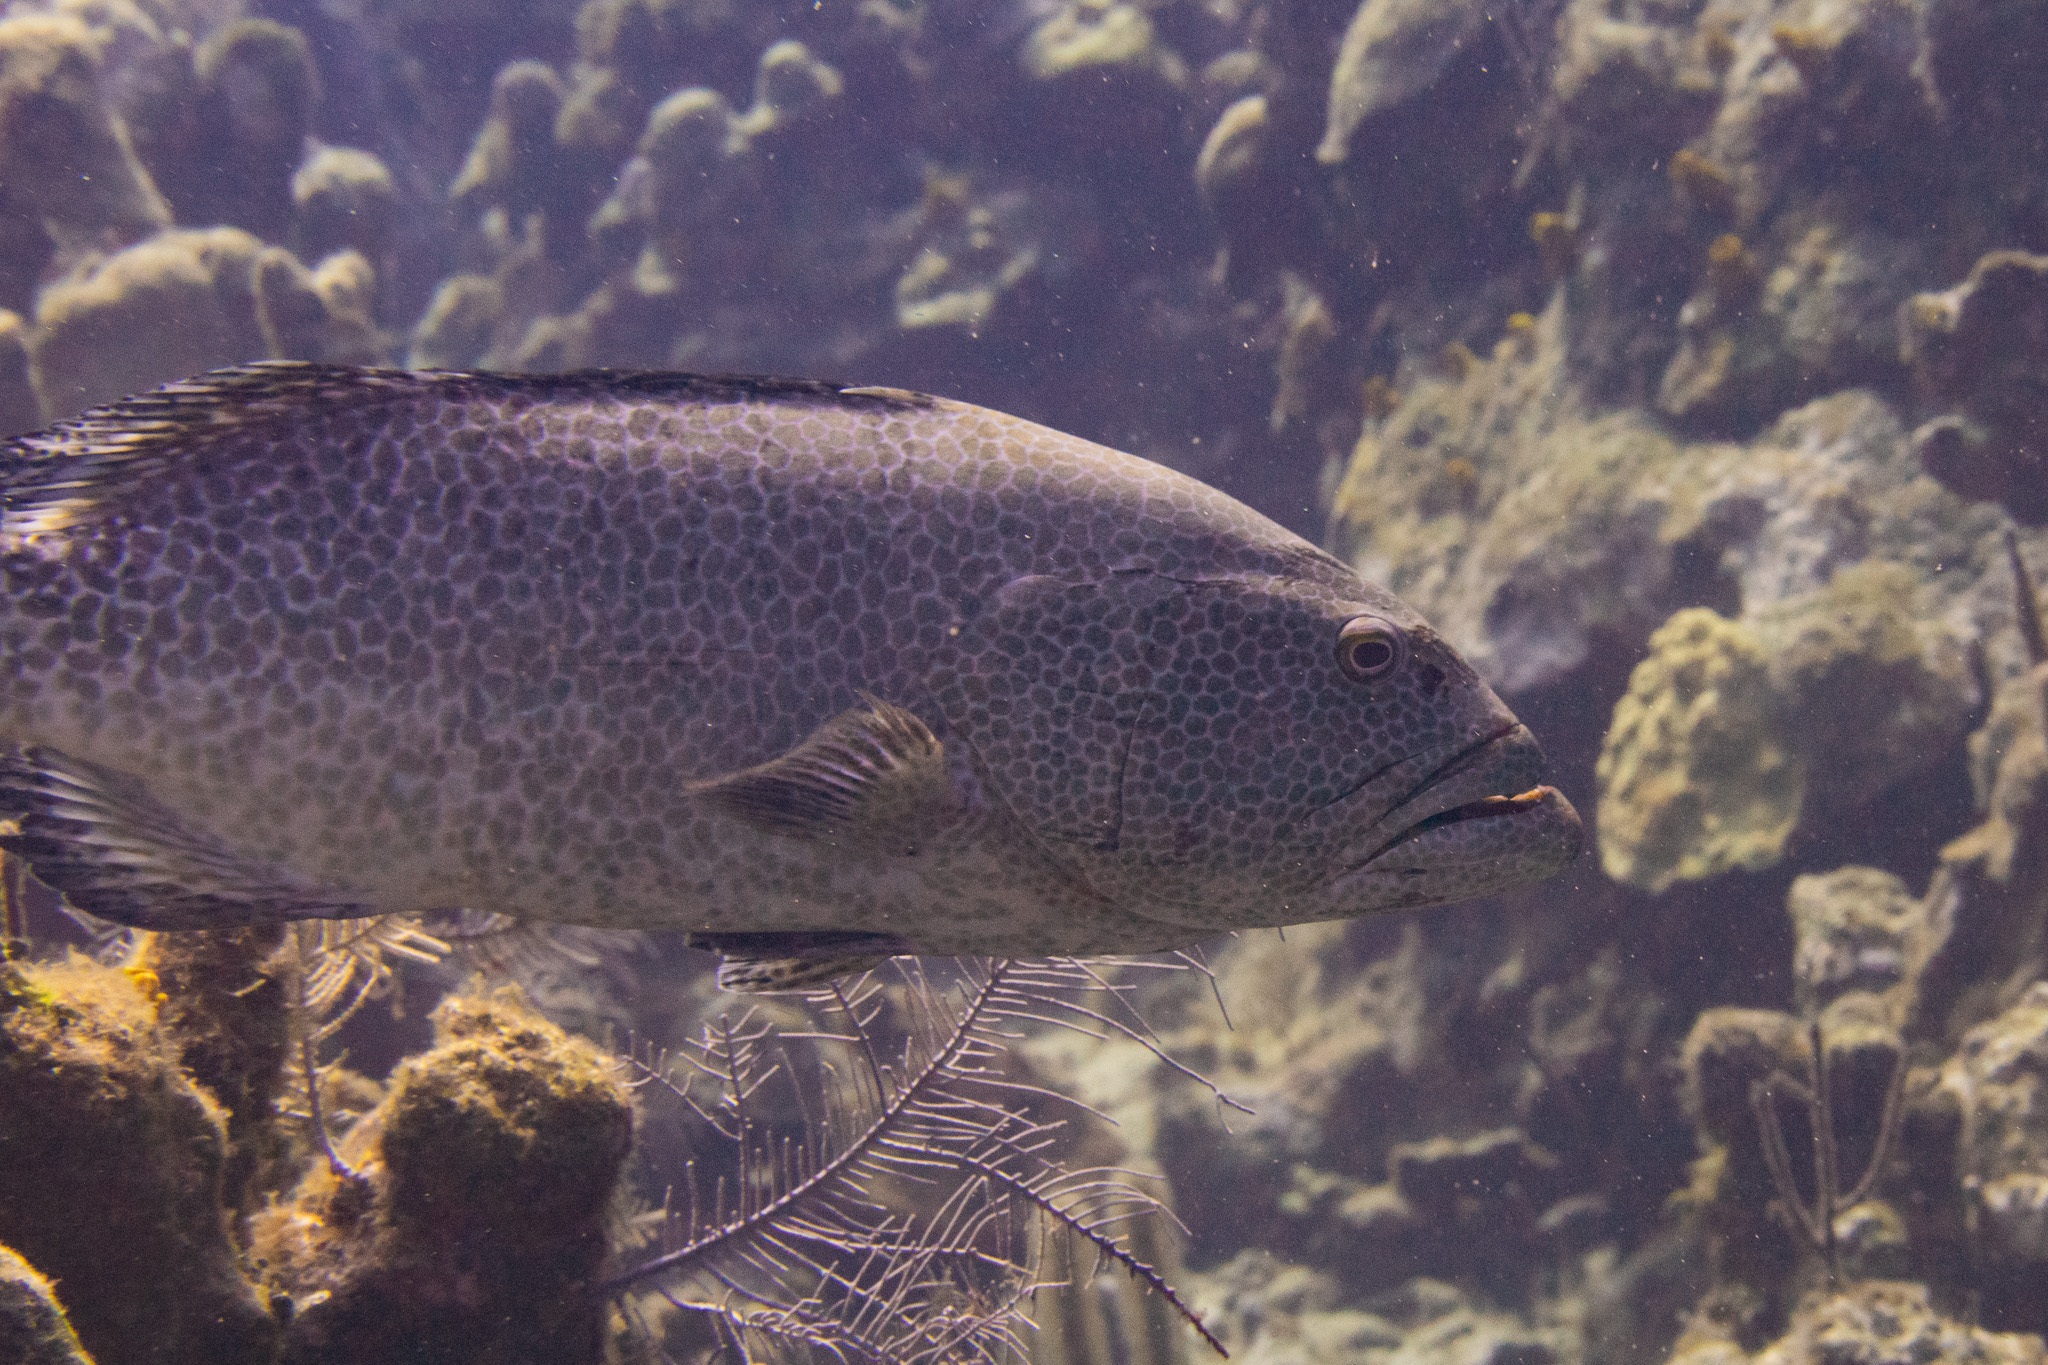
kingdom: Animalia
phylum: Chordata
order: Perciformes
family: Serranidae
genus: Mycteroperca
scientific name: Mycteroperca tigris
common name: Tiger grouper
